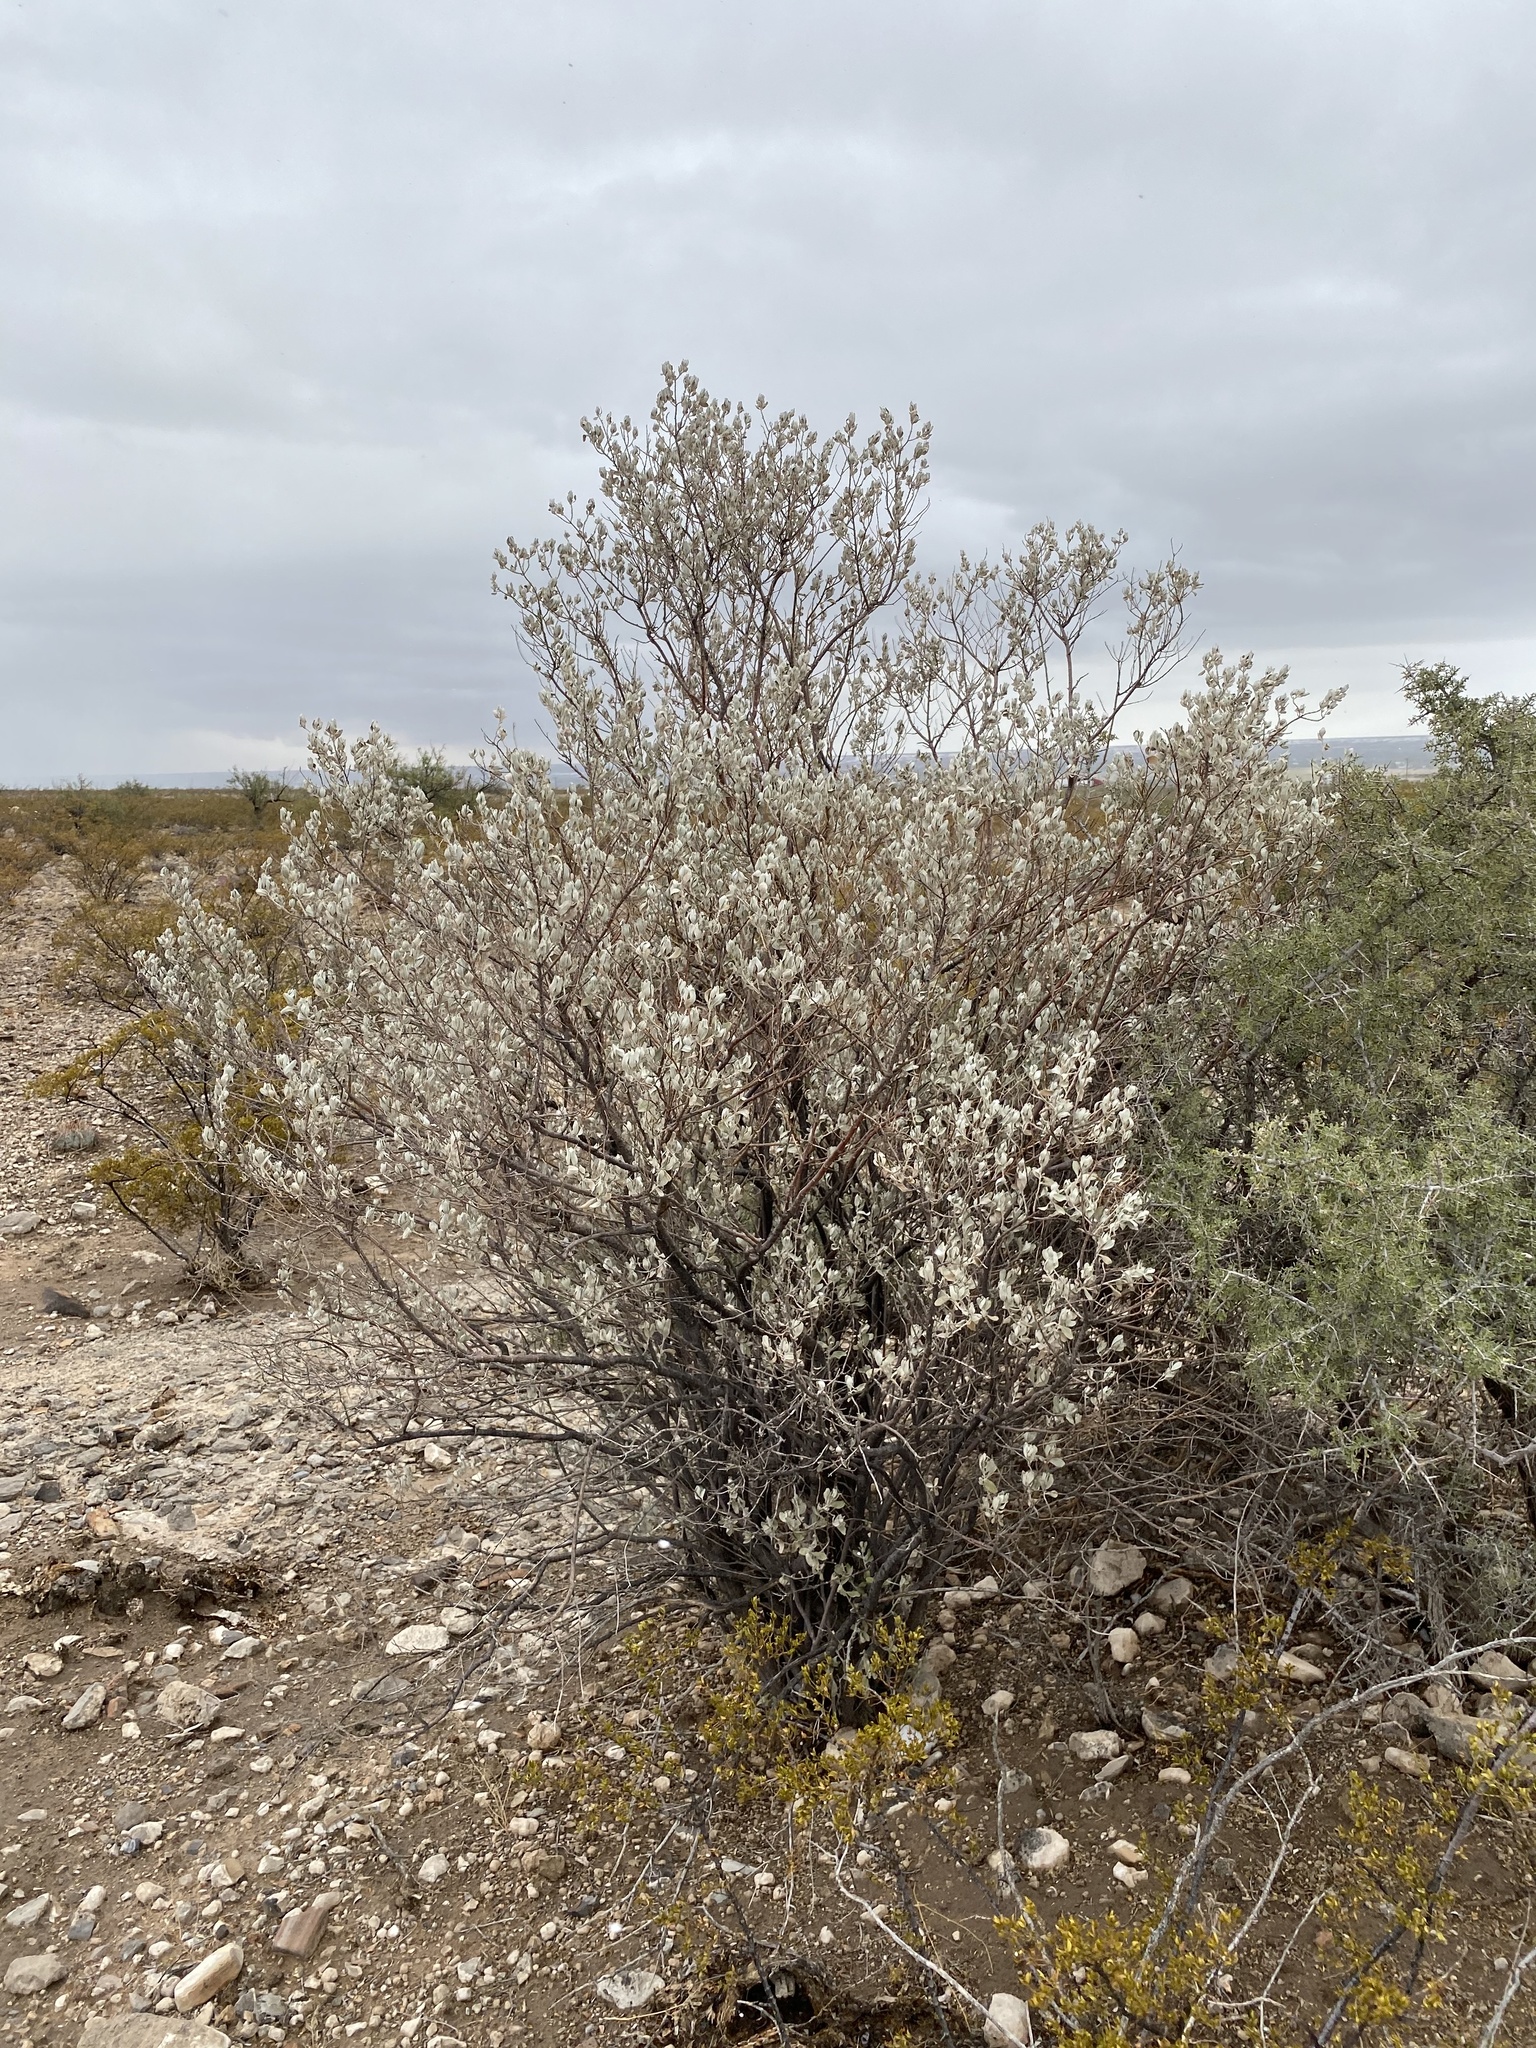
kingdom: Plantae
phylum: Tracheophyta
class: Magnoliopsida
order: Lamiales
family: Scrophulariaceae
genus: Leucophyllum
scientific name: Leucophyllum frutescens
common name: Texas silverleaf
